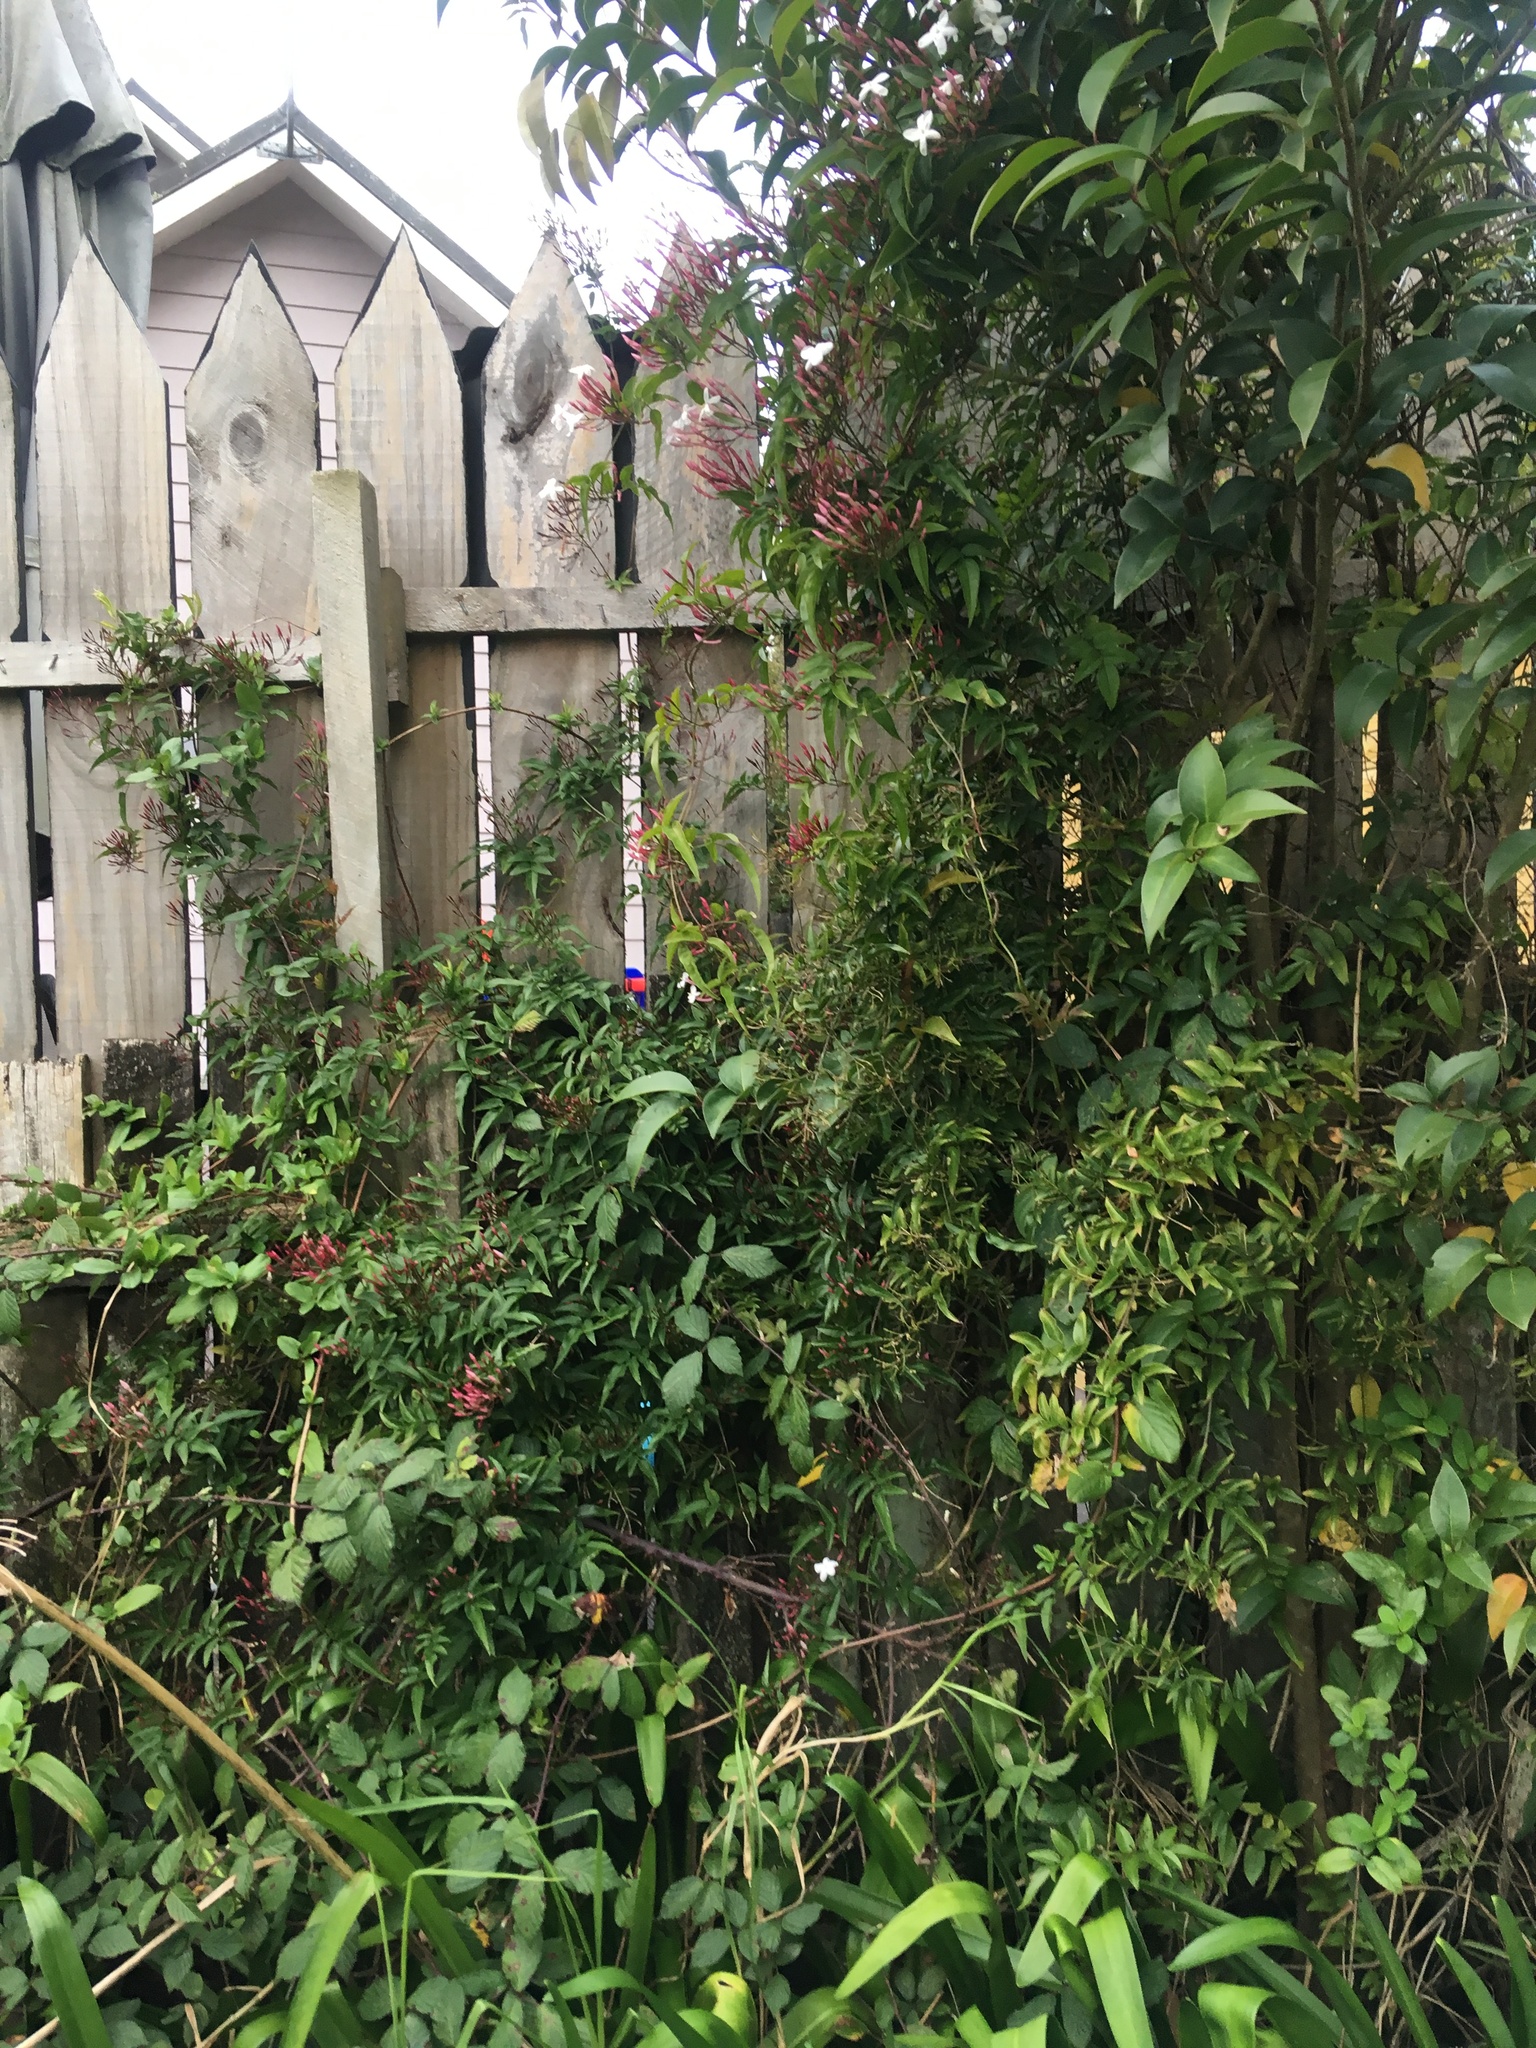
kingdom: Plantae
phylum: Tracheophyta
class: Magnoliopsida
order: Lamiales
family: Oleaceae
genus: Jasminum
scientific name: Jasminum polyanthum
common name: Pink jasmine
